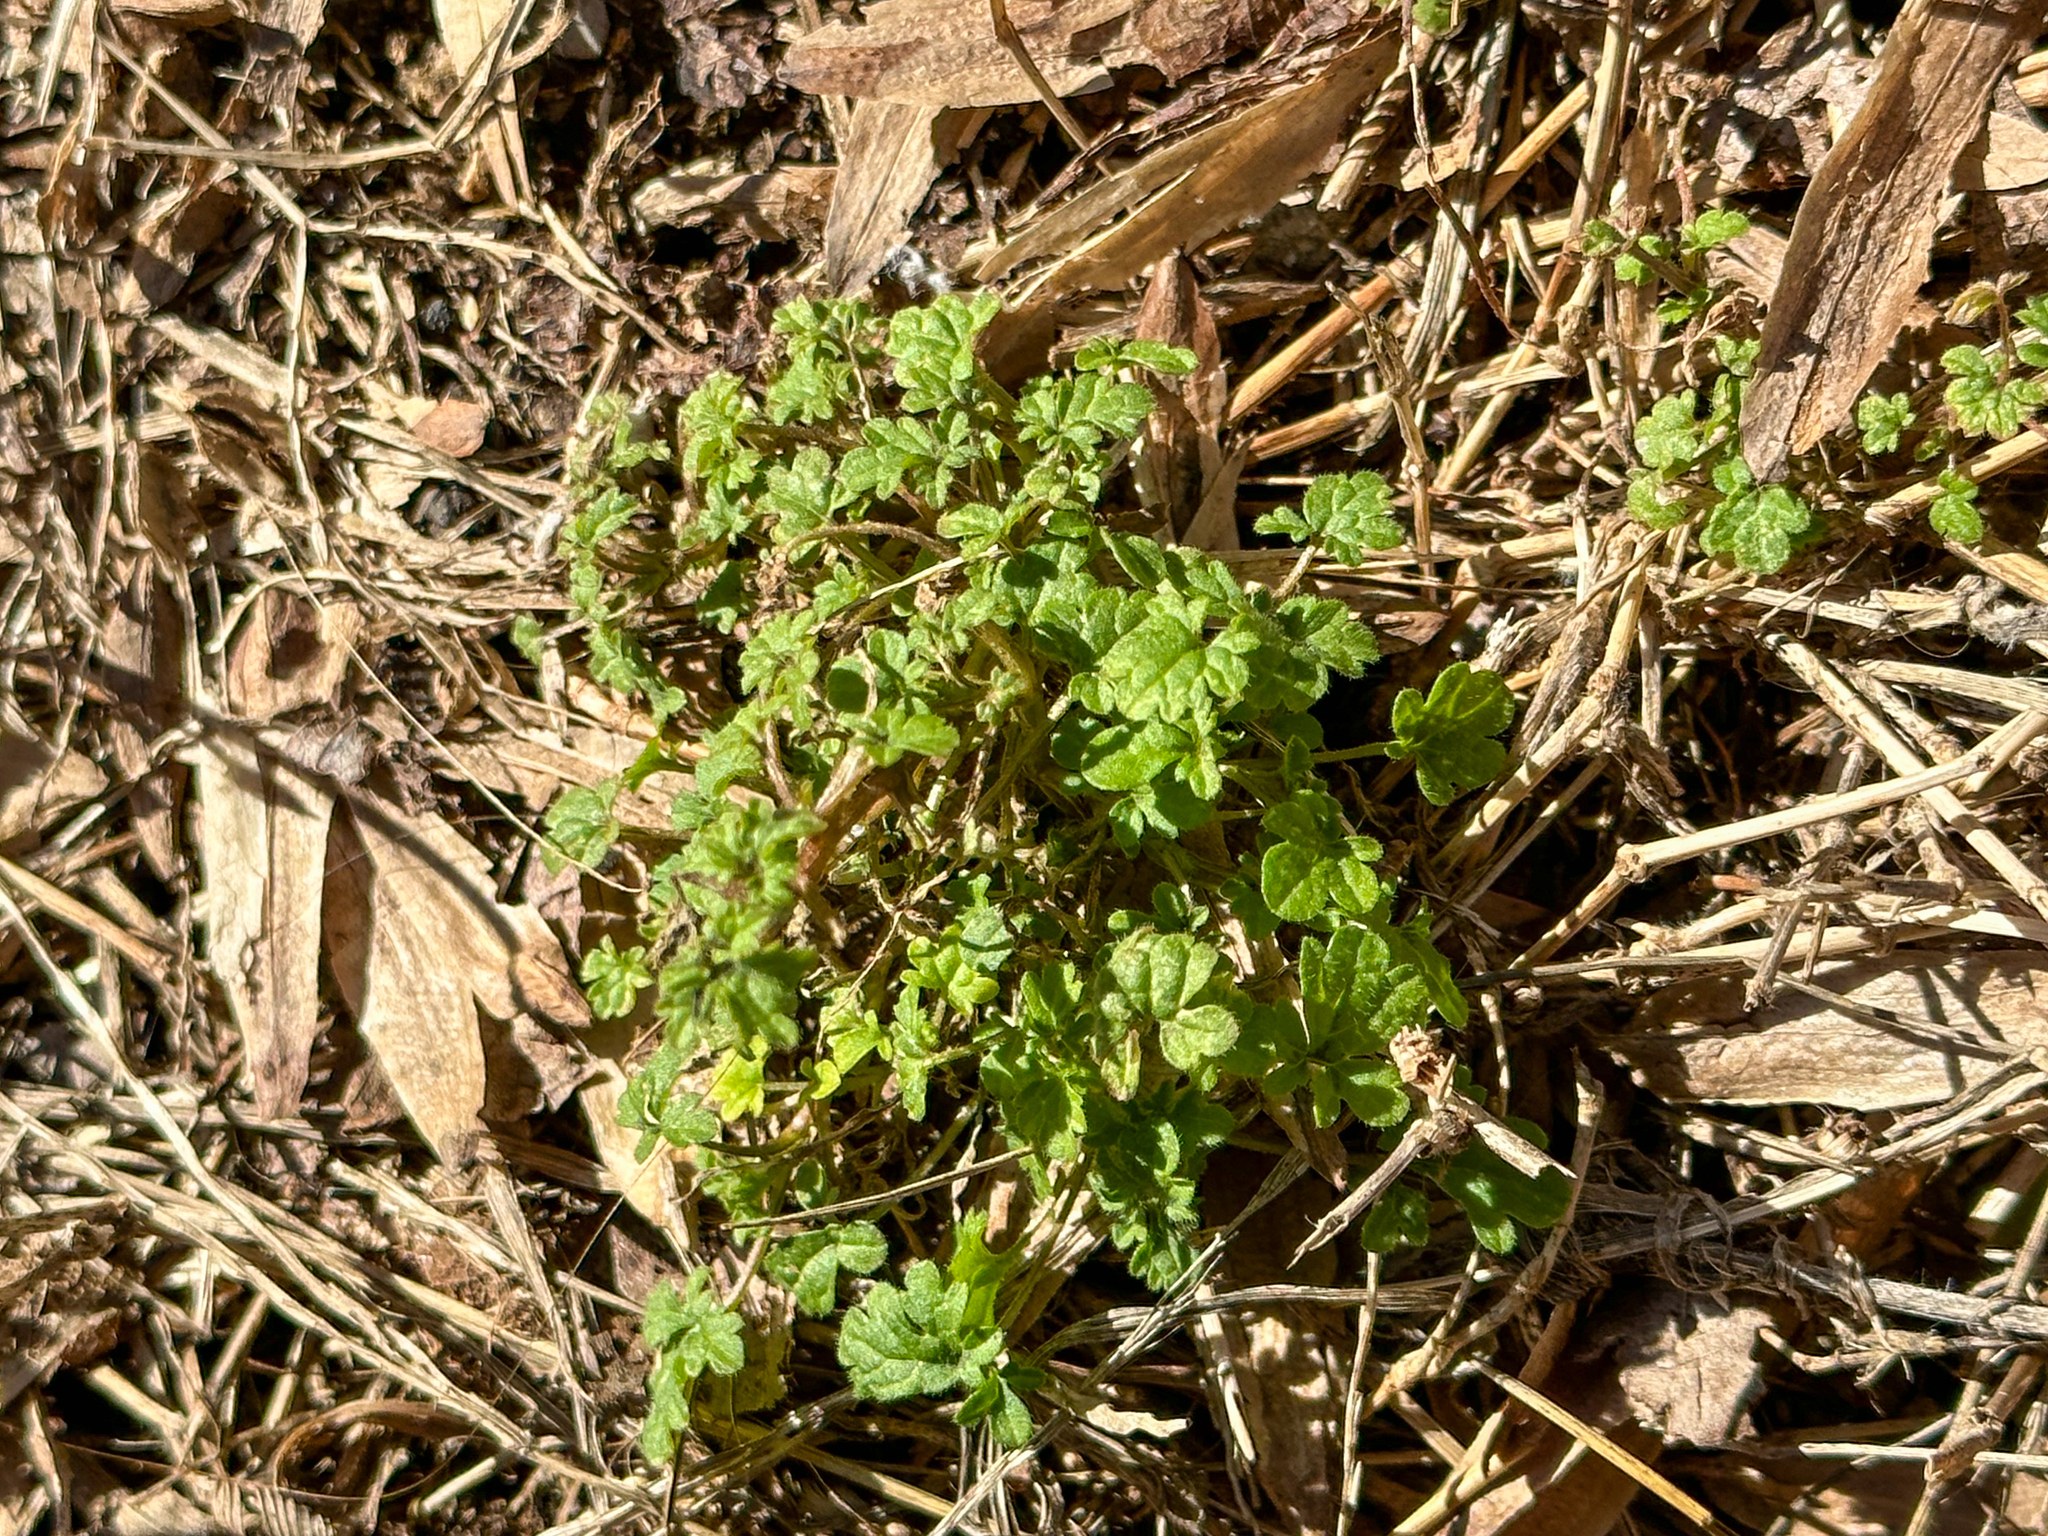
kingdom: Plantae
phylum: Tracheophyta
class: Magnoliopsida
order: Lamiales
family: Lamiaceae
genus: Lamium
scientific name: Lamium amplexicaule
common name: Henbit dead-nettle
